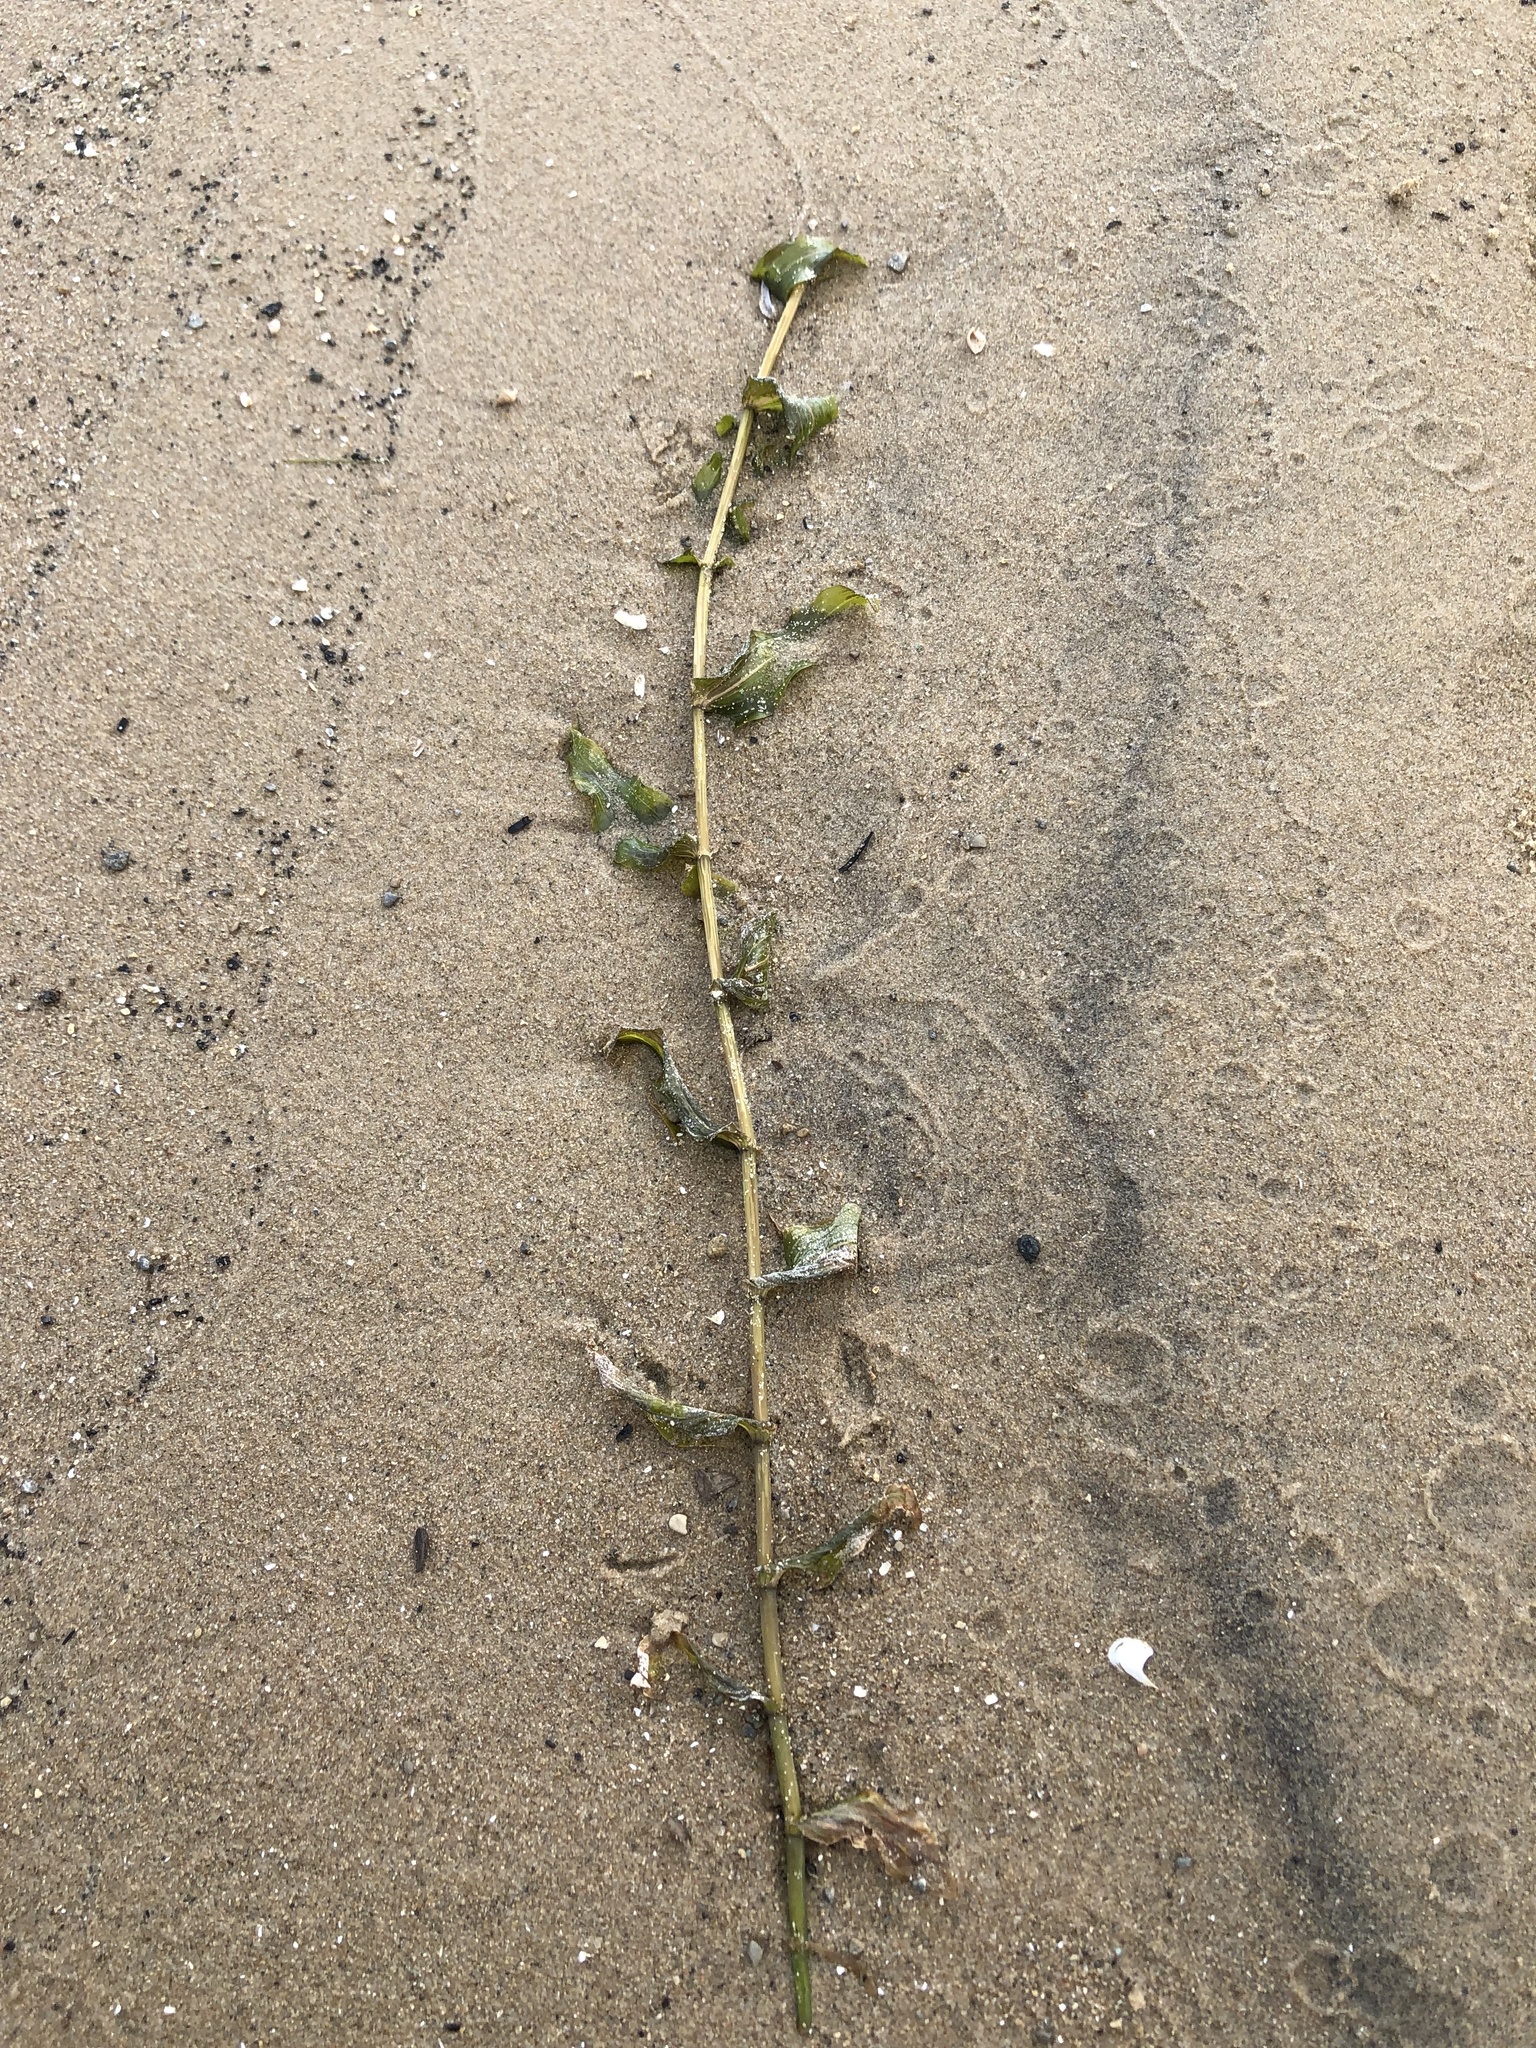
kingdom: Plantae
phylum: Tracheophyta
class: Liliopsida
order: Alismatales
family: Potamogetonaceae
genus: Potamogeton
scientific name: Potamogeton richardsonii
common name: Richardson's pondweed
